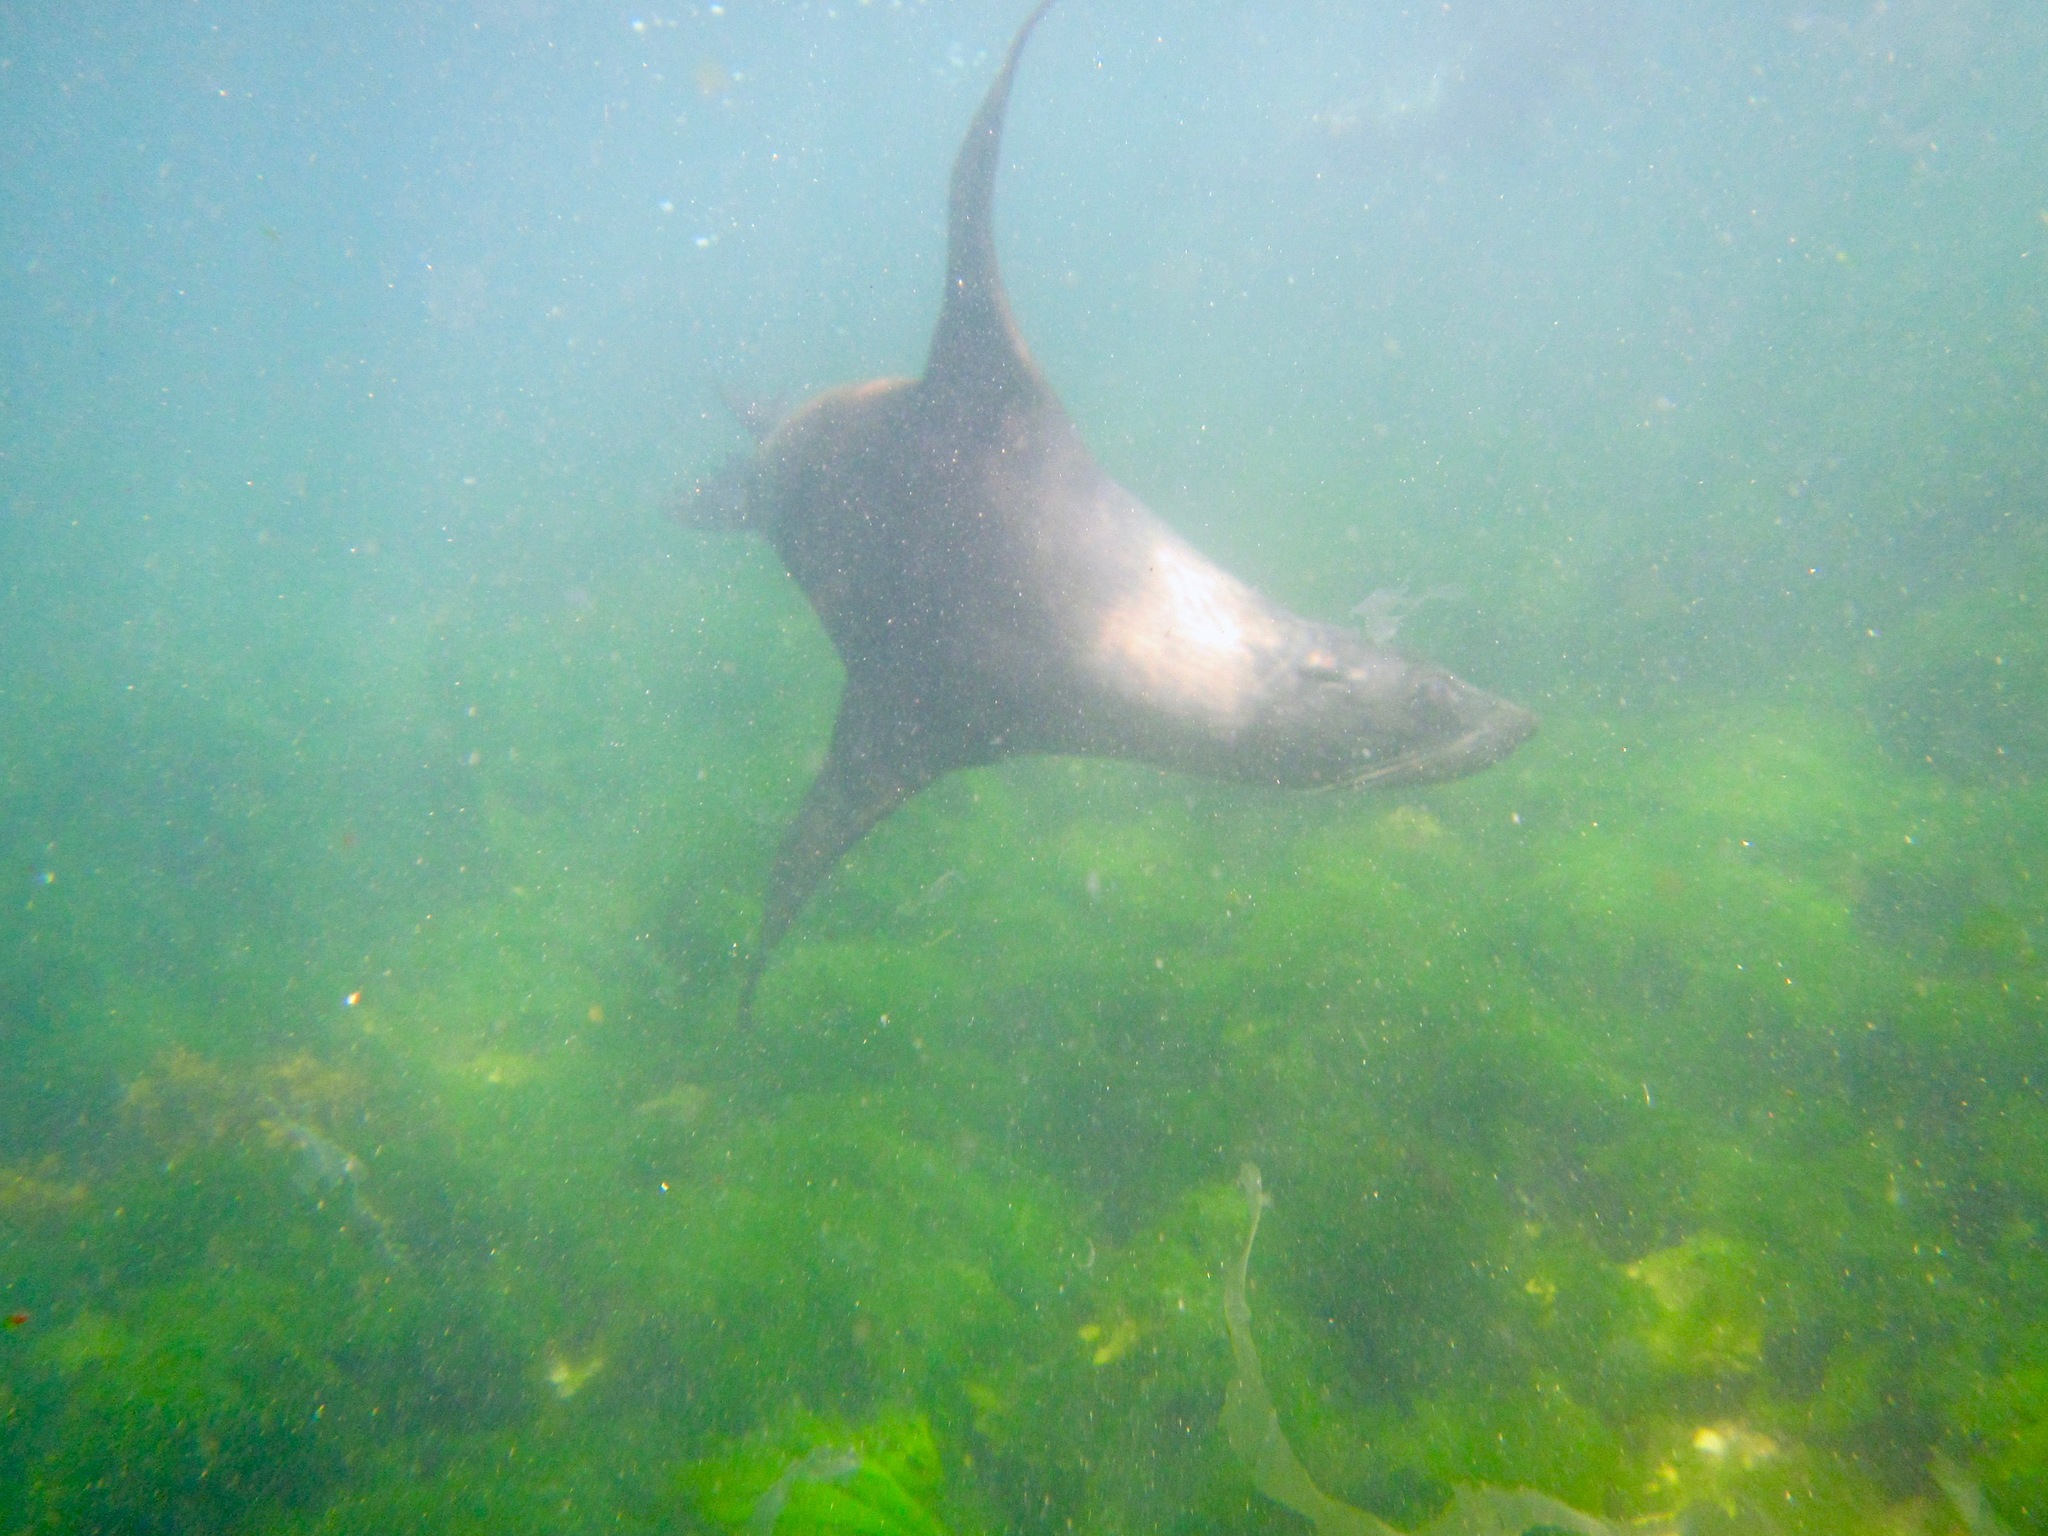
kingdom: Animalia
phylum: Chordata
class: Mammalia
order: Carnivora
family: Otariidae
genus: Arctocephalus
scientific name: Arctocephalus forsteri
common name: New zealand fur seal
